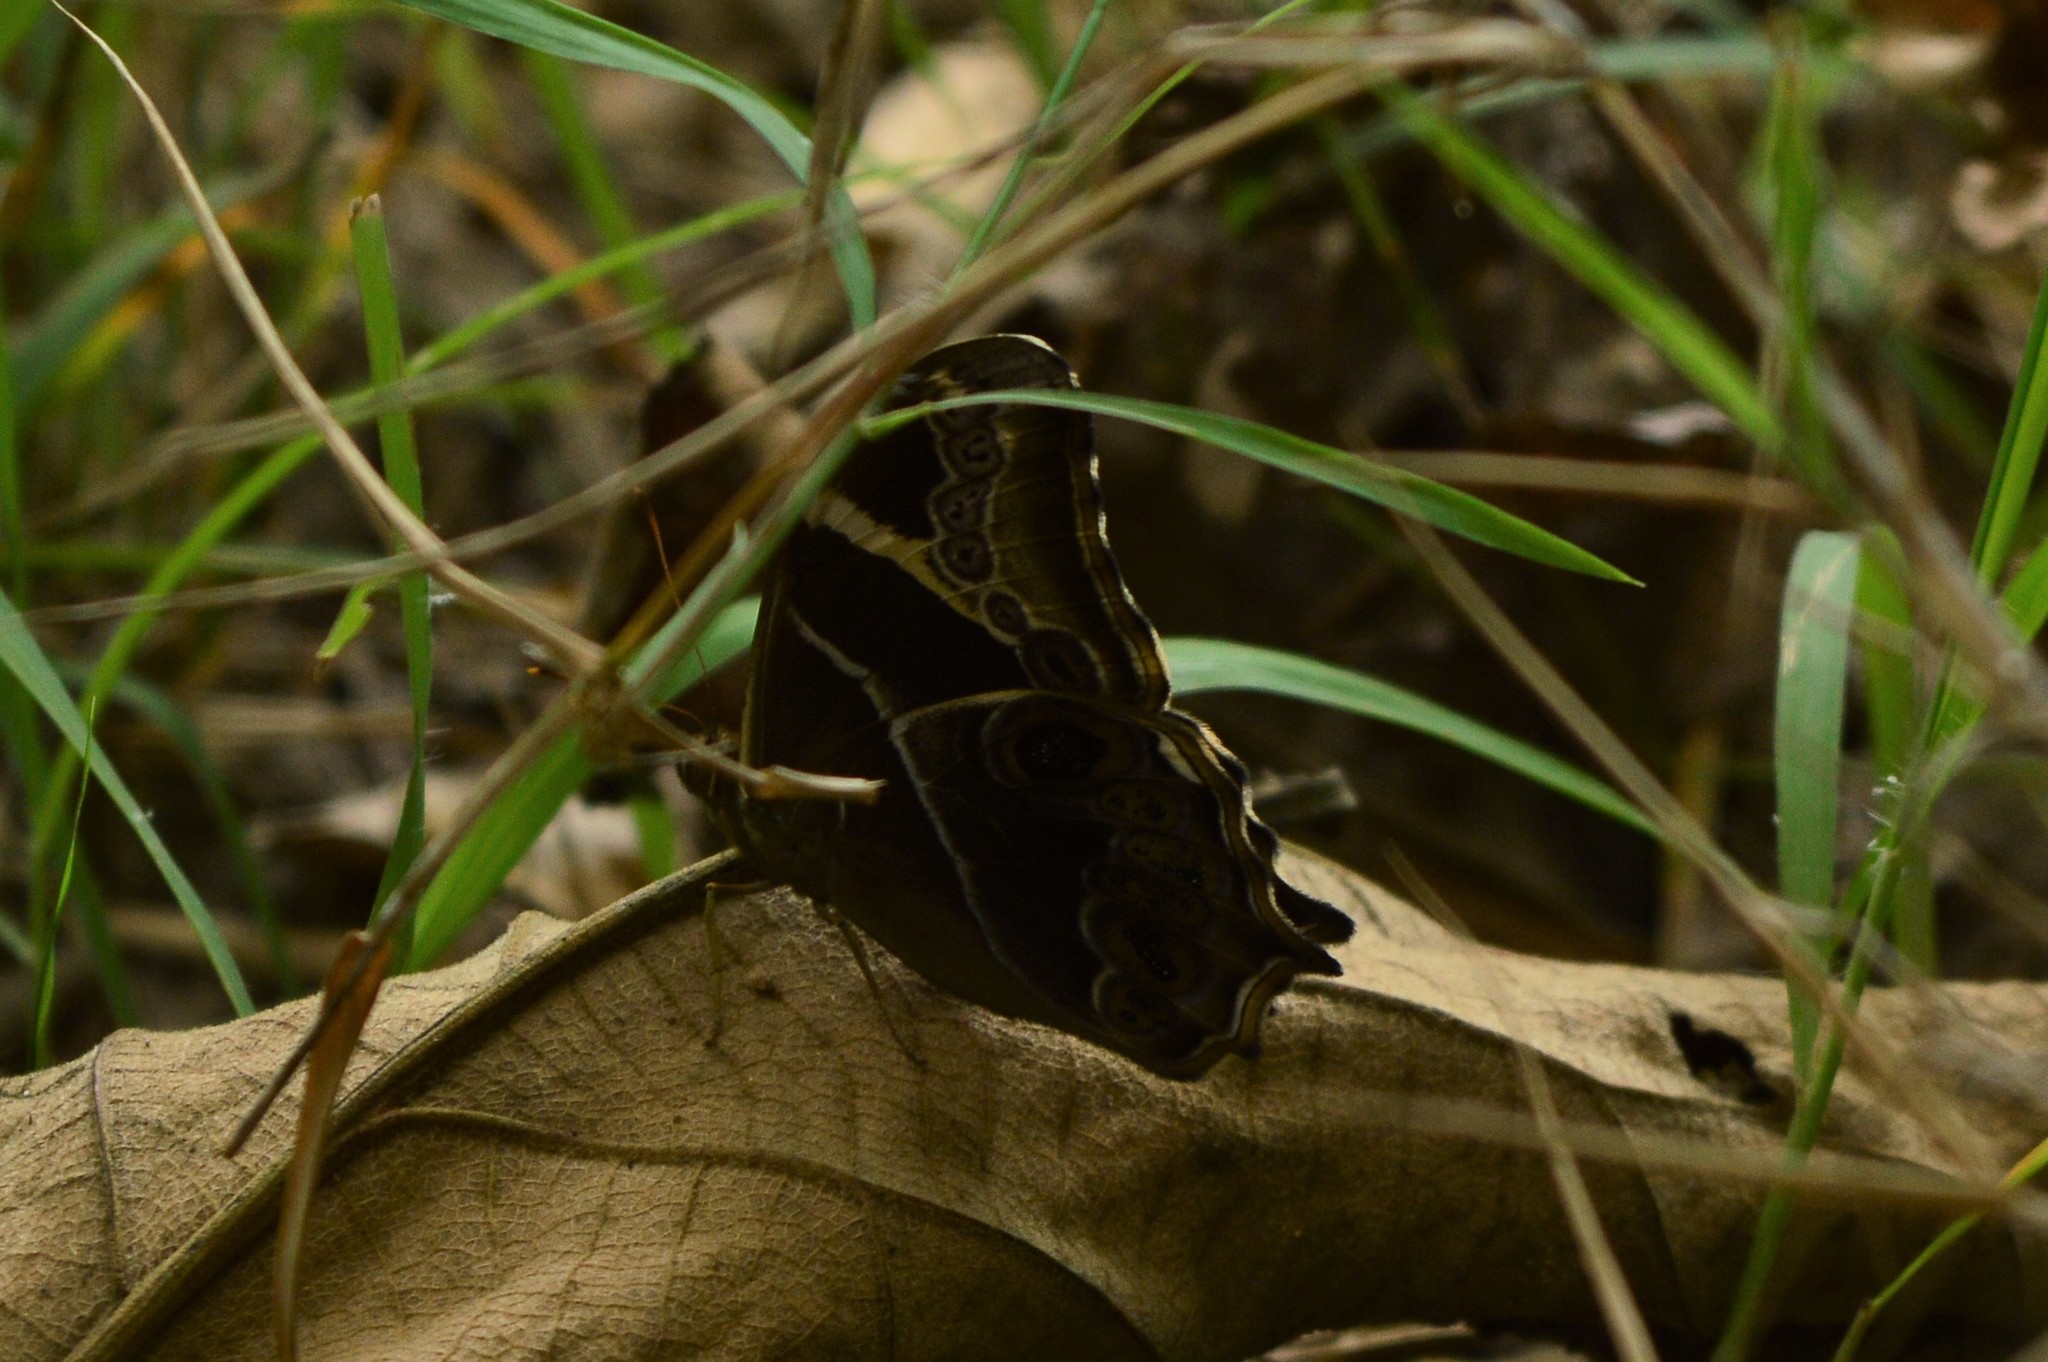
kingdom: Animalia
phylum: Arthropoda
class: Insecta
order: Lepidoptera
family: Nymphalidae
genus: Lethe
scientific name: Lethe europa
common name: Bamboo treebrown
